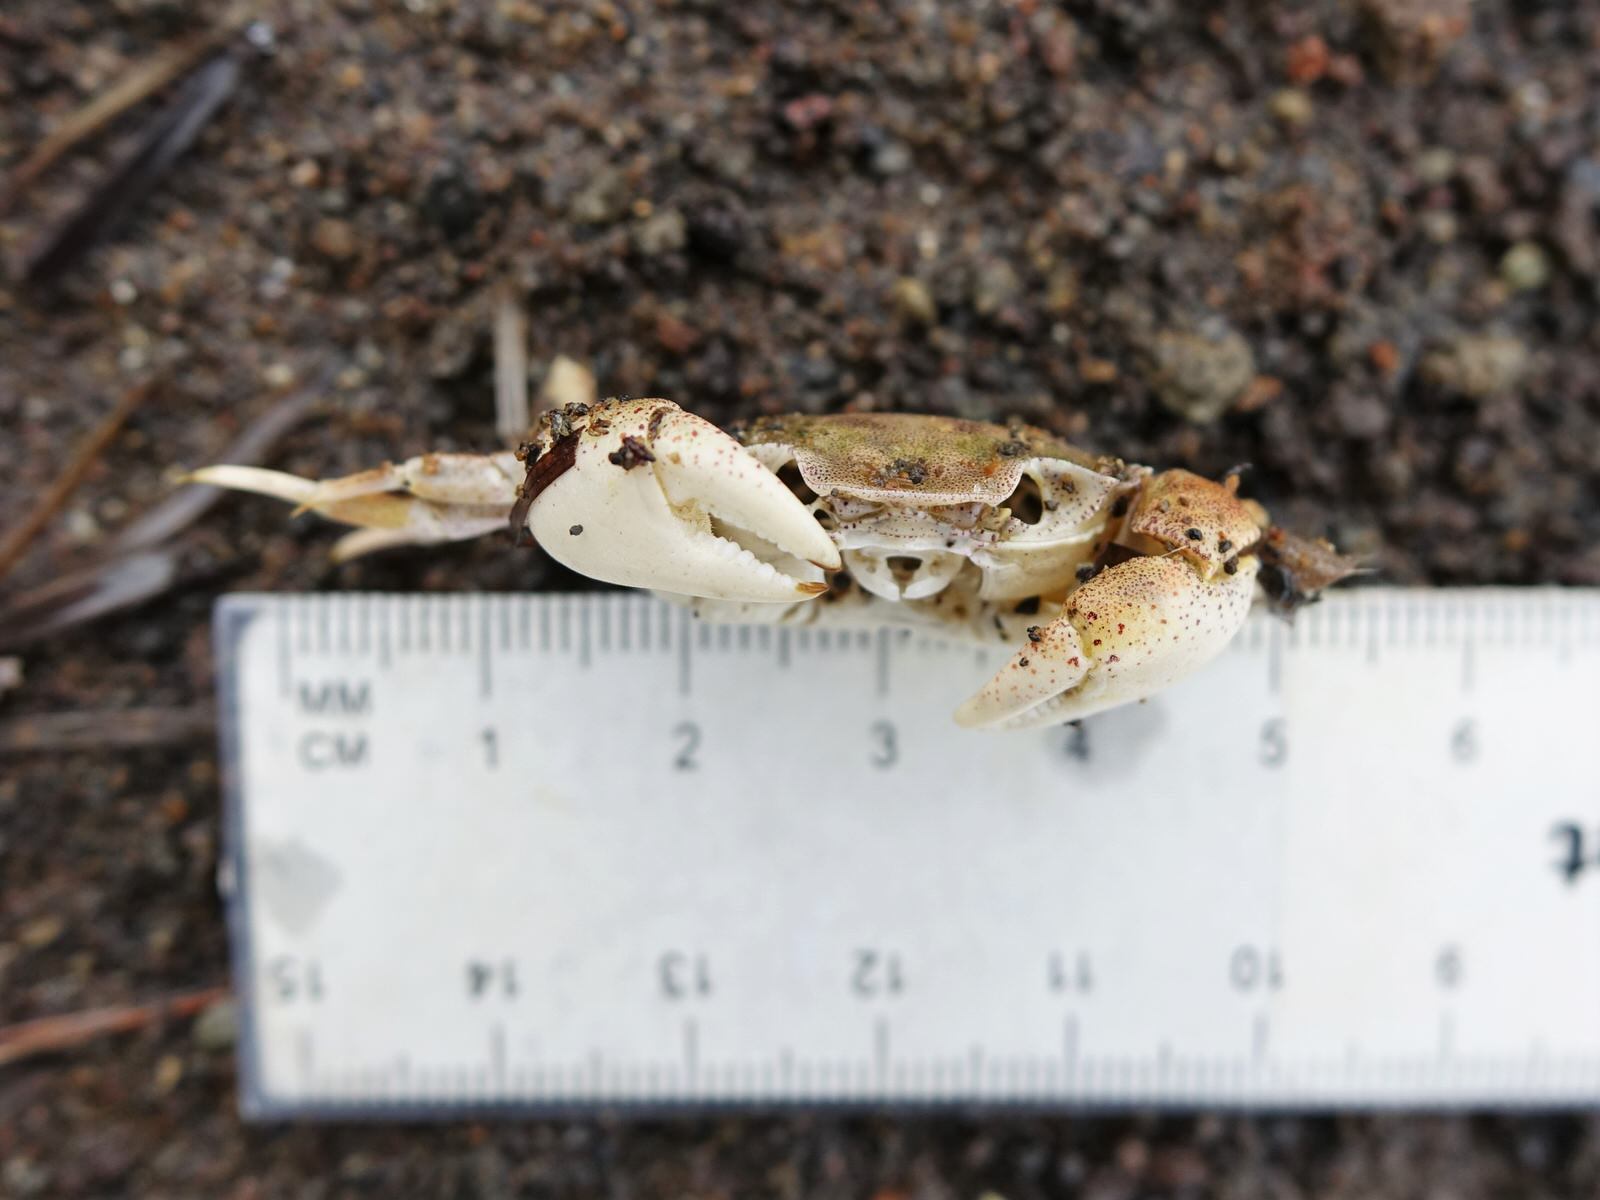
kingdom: Animalia
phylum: Arthropoda
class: Malacostraca
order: Decapoda
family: Varunidae
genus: Hemigrapsus
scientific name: Hemigrapsus crenulatus
